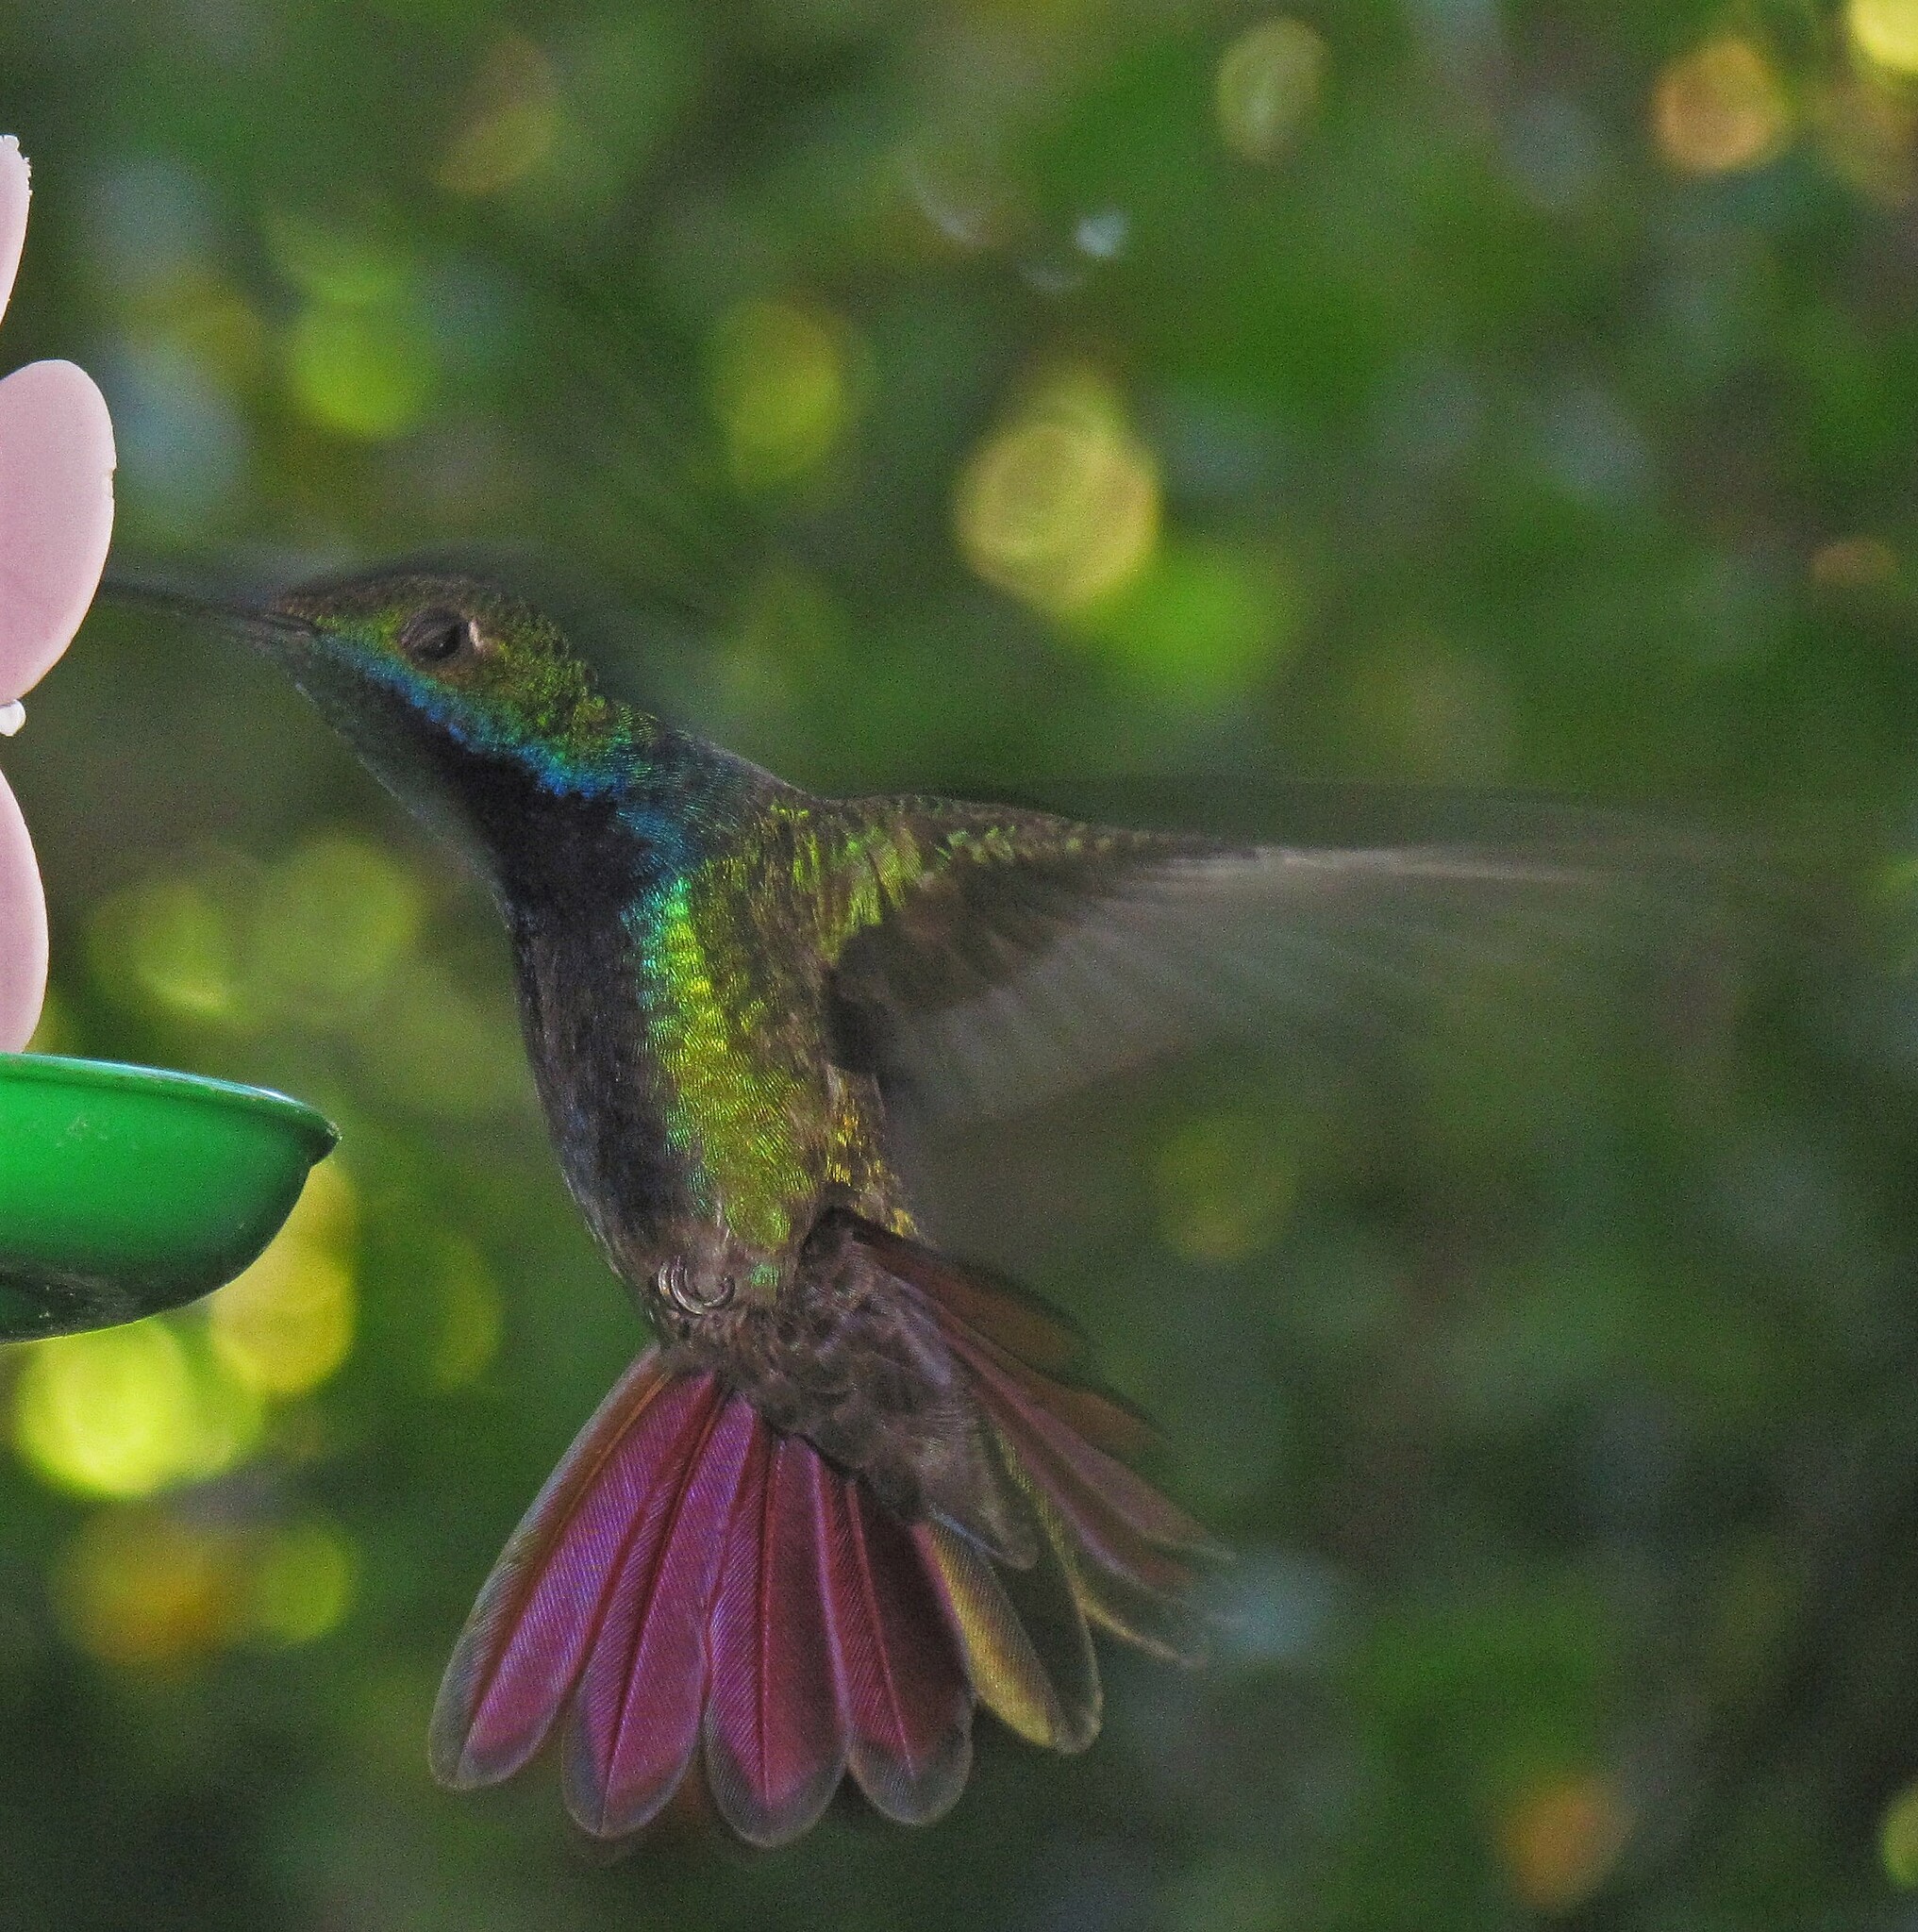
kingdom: Animalia
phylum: Chordata
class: Aves
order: Apodiformes
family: Trochilidae
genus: Anthracothorax
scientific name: Anthracothorax nigricollis
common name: Black-throated mango
